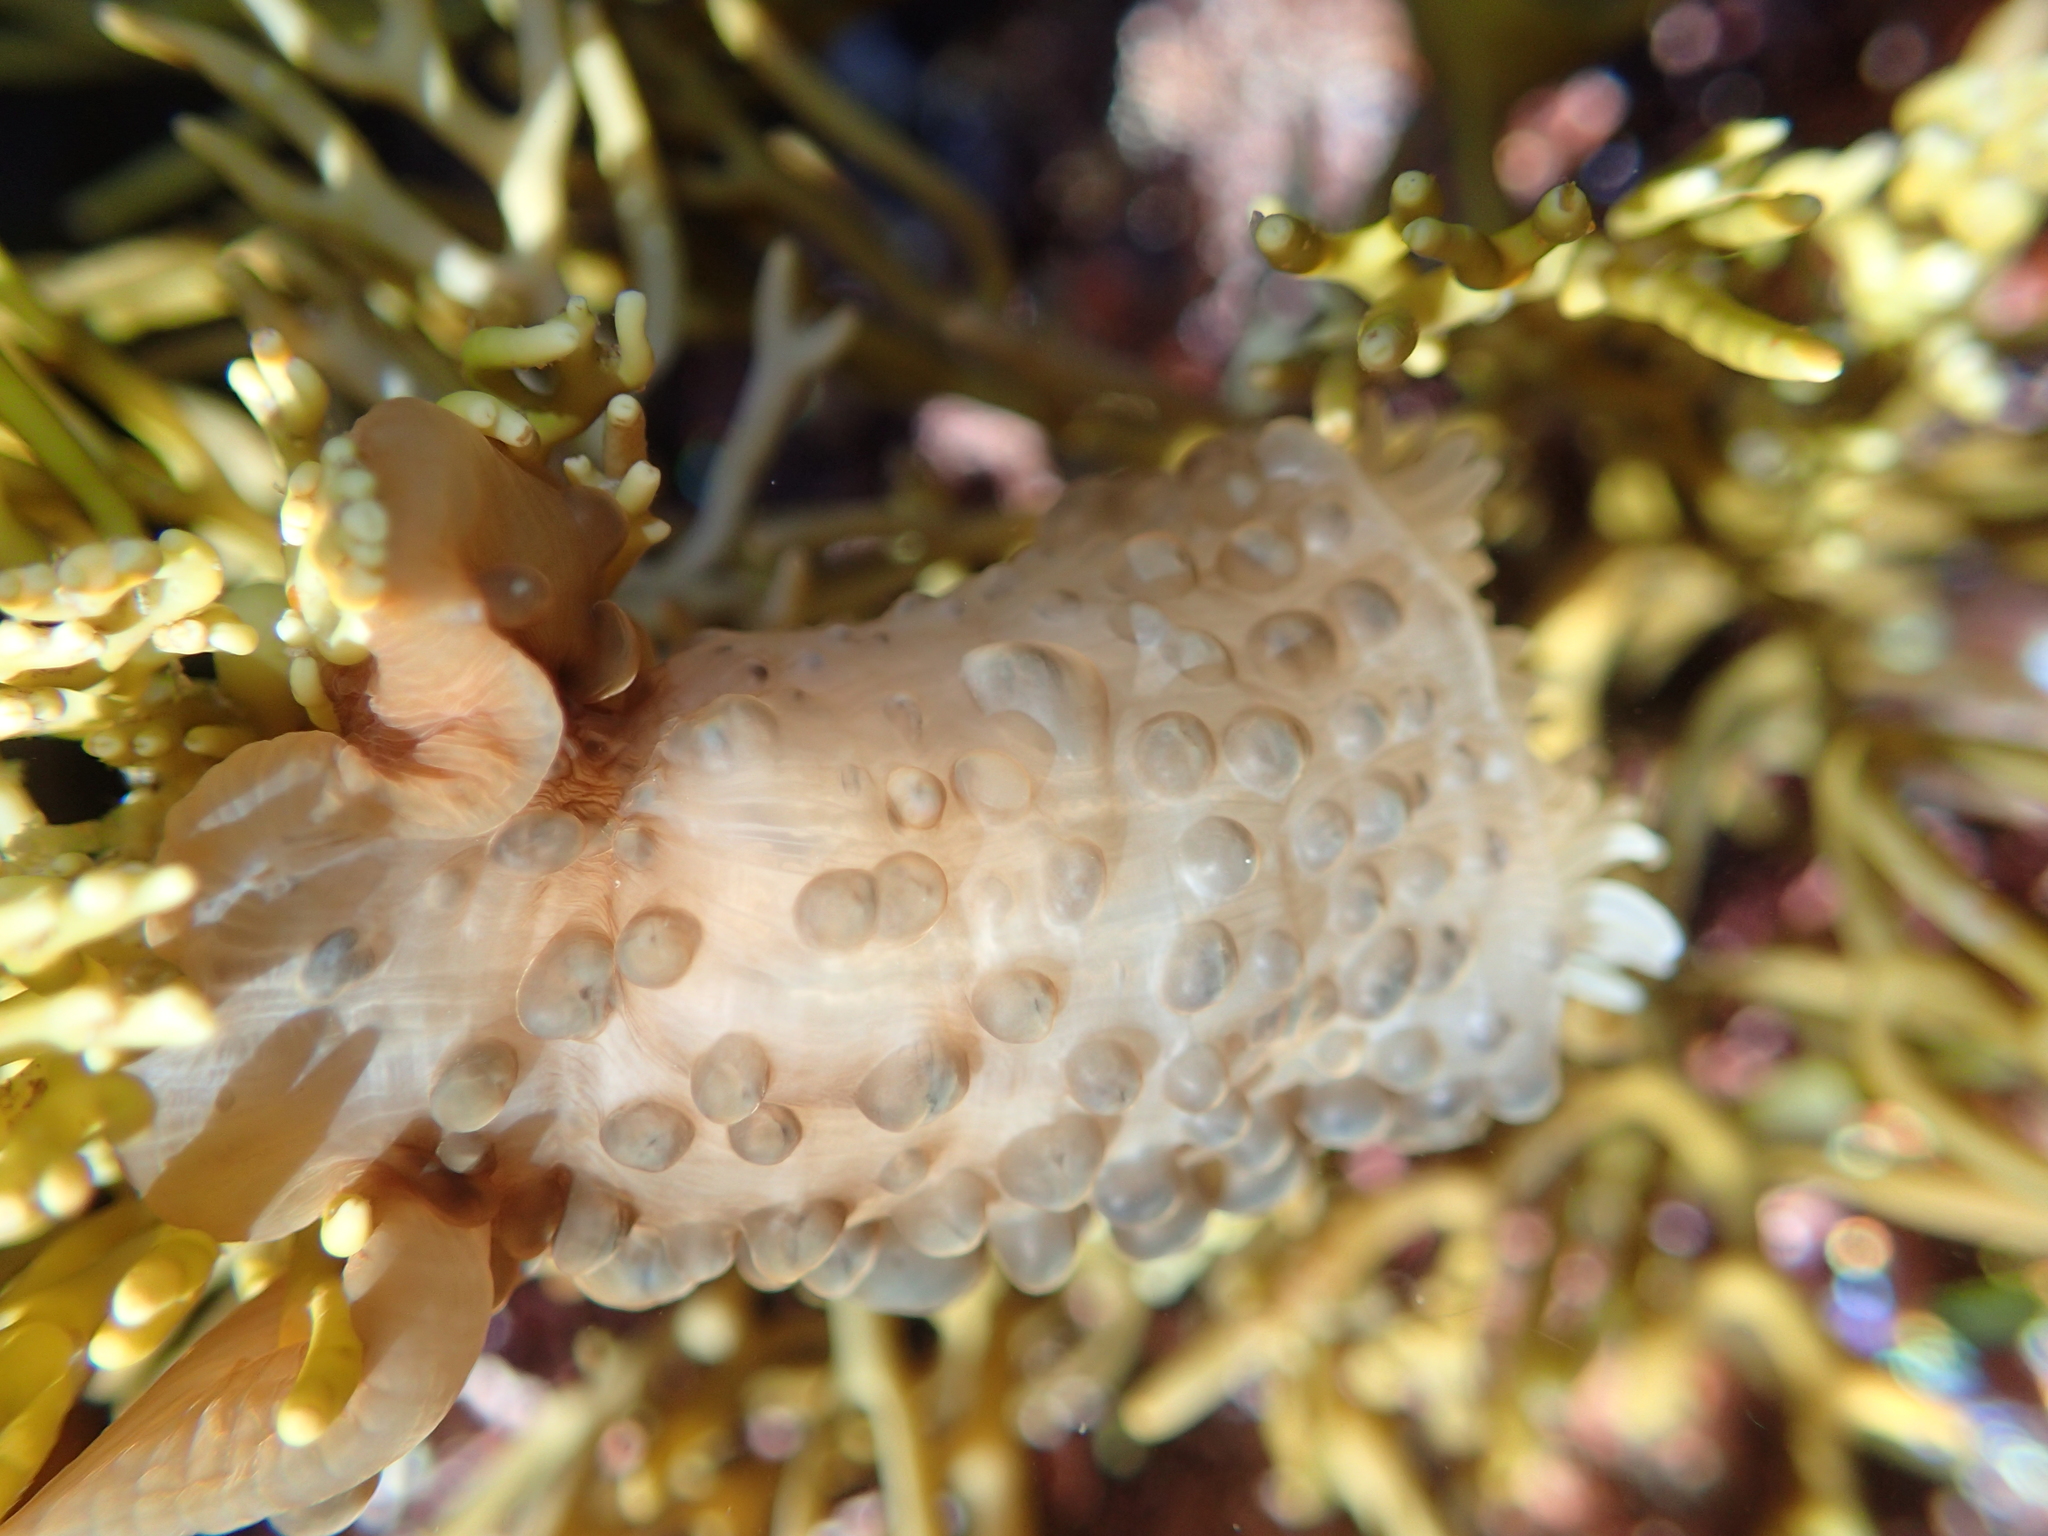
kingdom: Animalia
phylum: Cnidaria
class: Anthozoa
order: Actiniaria
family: Actiniidae
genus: Phlyctenactis
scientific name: Phlyctenactis tuberculosa
